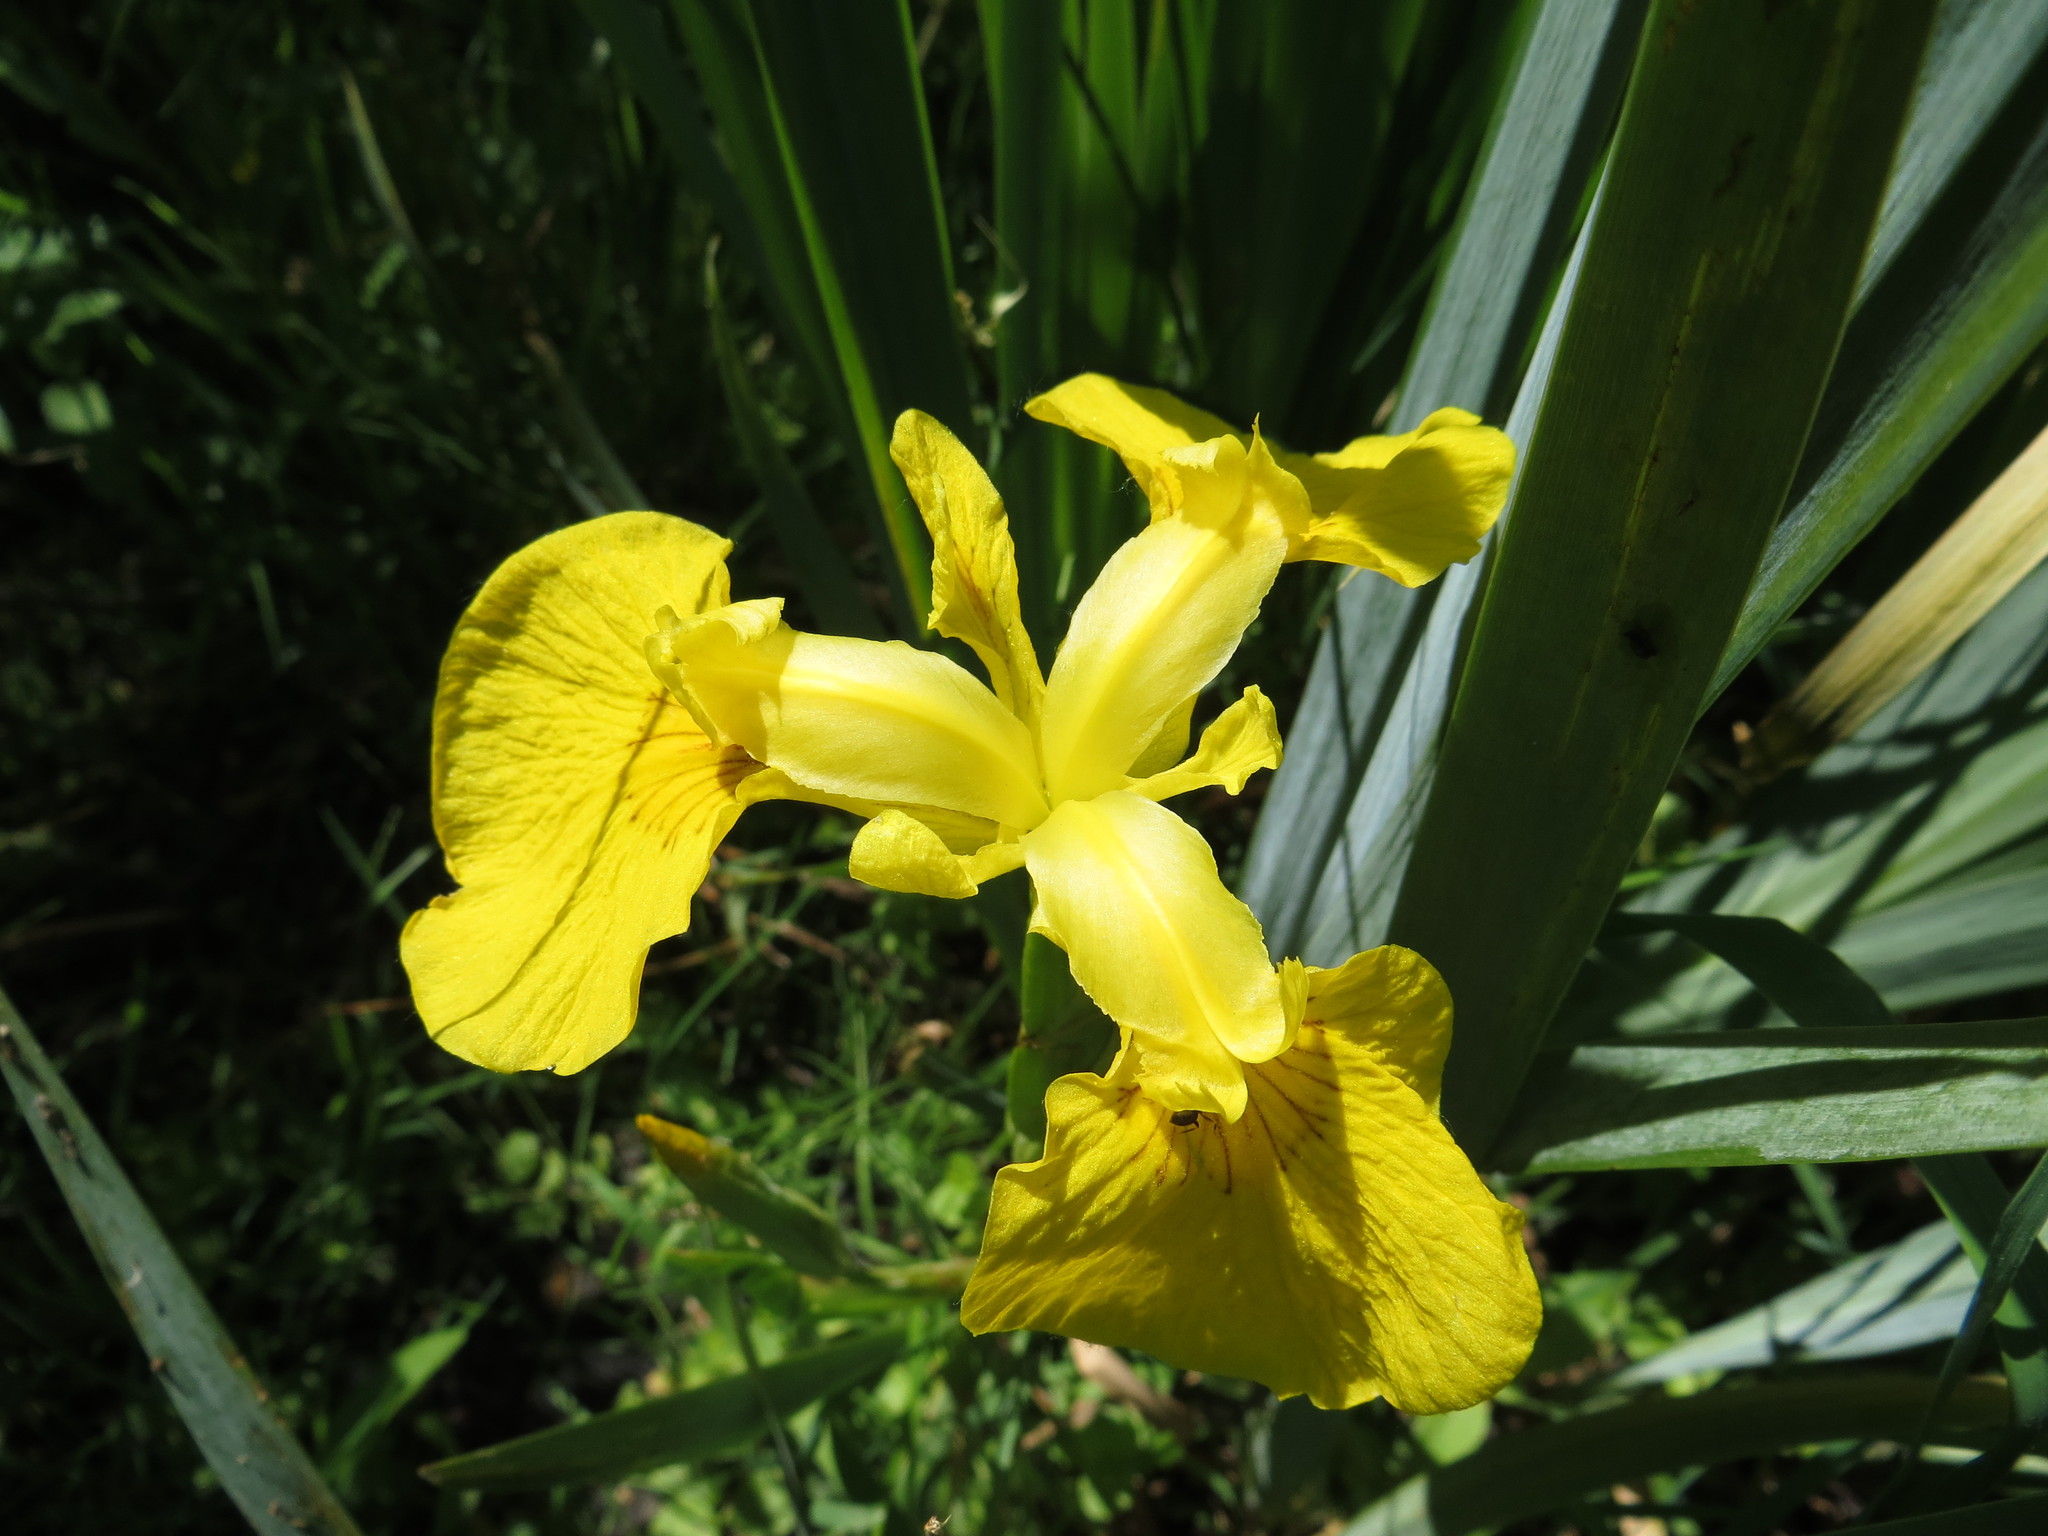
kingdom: Plantae
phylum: Tracheophyta
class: Liliopsida
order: Asparagales
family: Iridaceae
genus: Iris
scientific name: Iris pseudacorus
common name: Yellow flag
